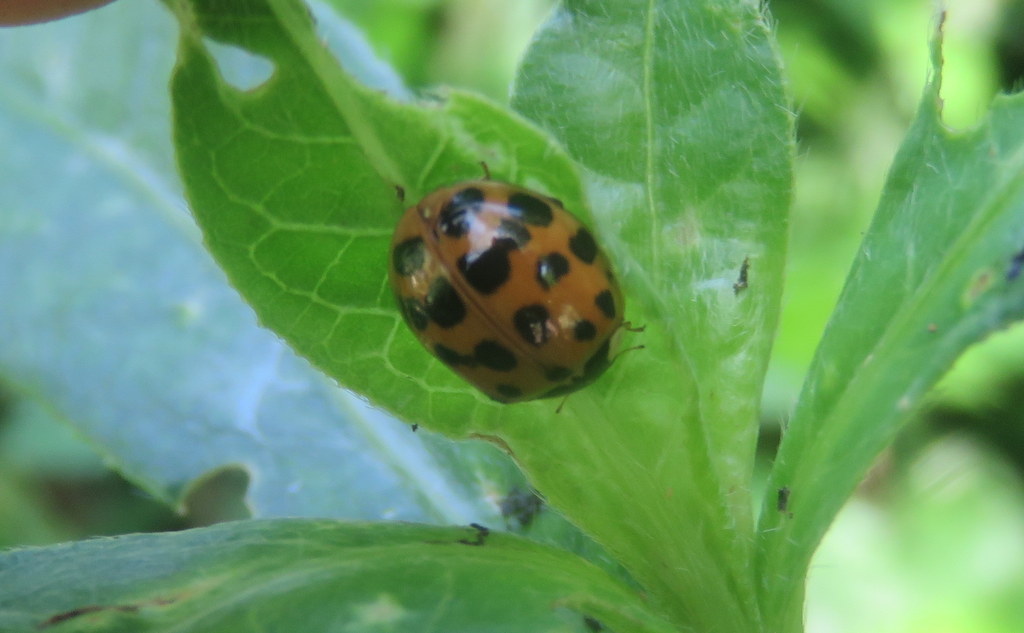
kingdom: Animalia
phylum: Arthropoda
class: Insecta
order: Coleoptera
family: Coccinellidae
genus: Harmonia
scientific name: Harmonia axyridis
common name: Harlequin ladybird
